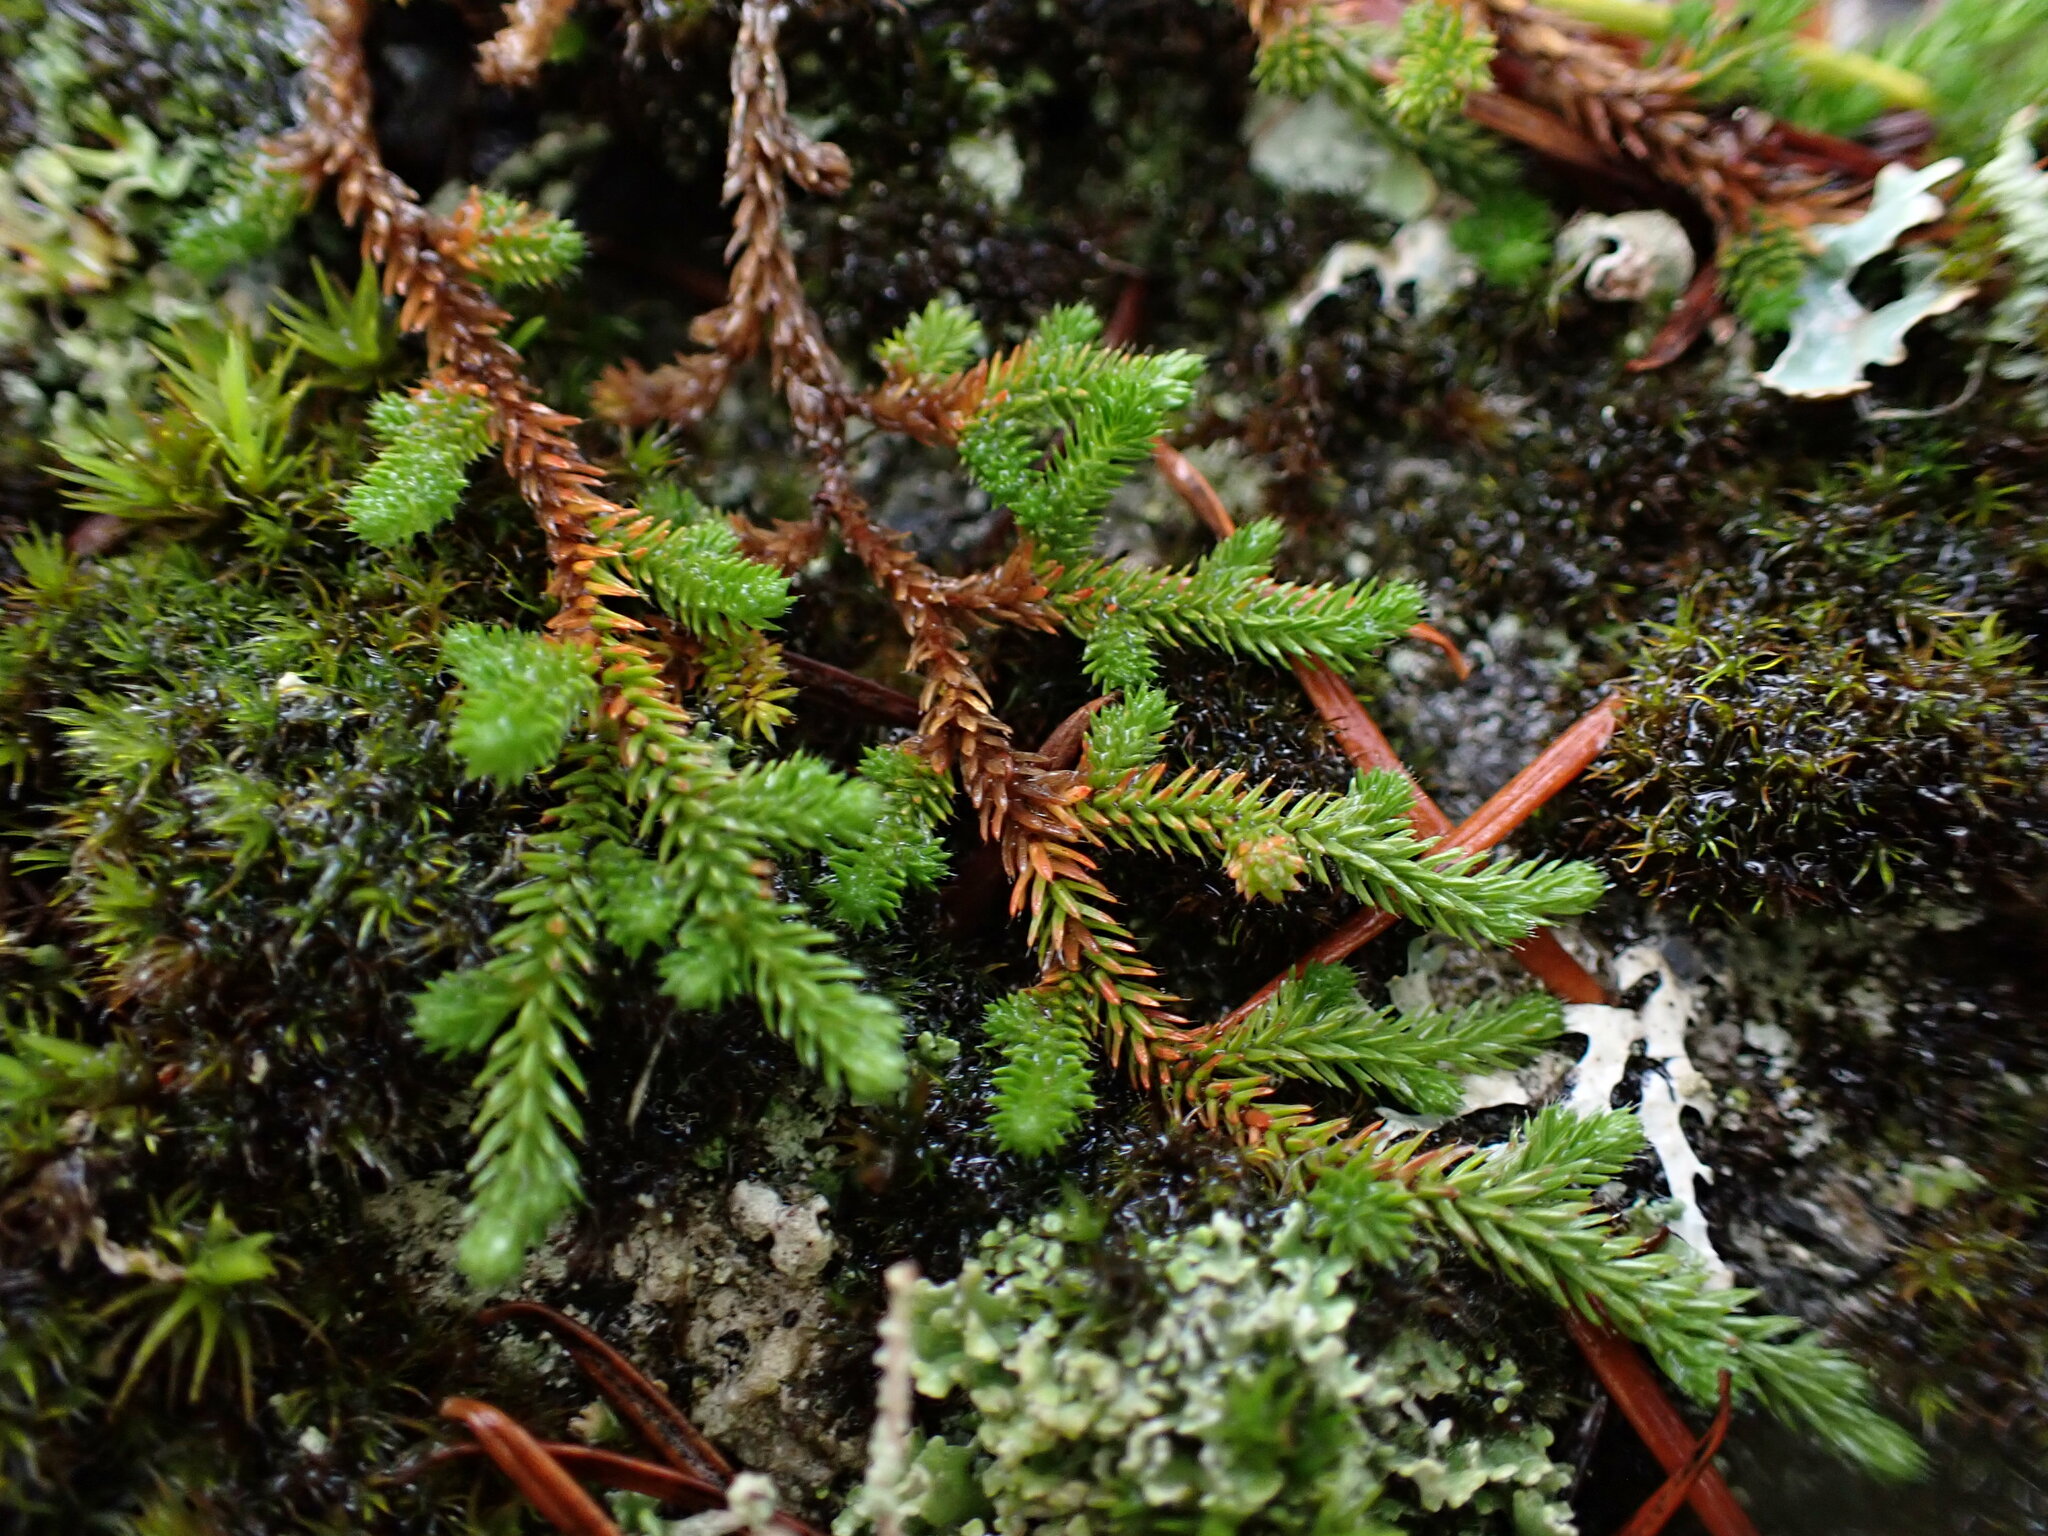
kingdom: Plantae
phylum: Tracheophyta
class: Lycopodiopsida
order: Selaginellales
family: Selaginellaceae
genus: Selaginella
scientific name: Selaginella wallacei
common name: Wallace's selaginella
